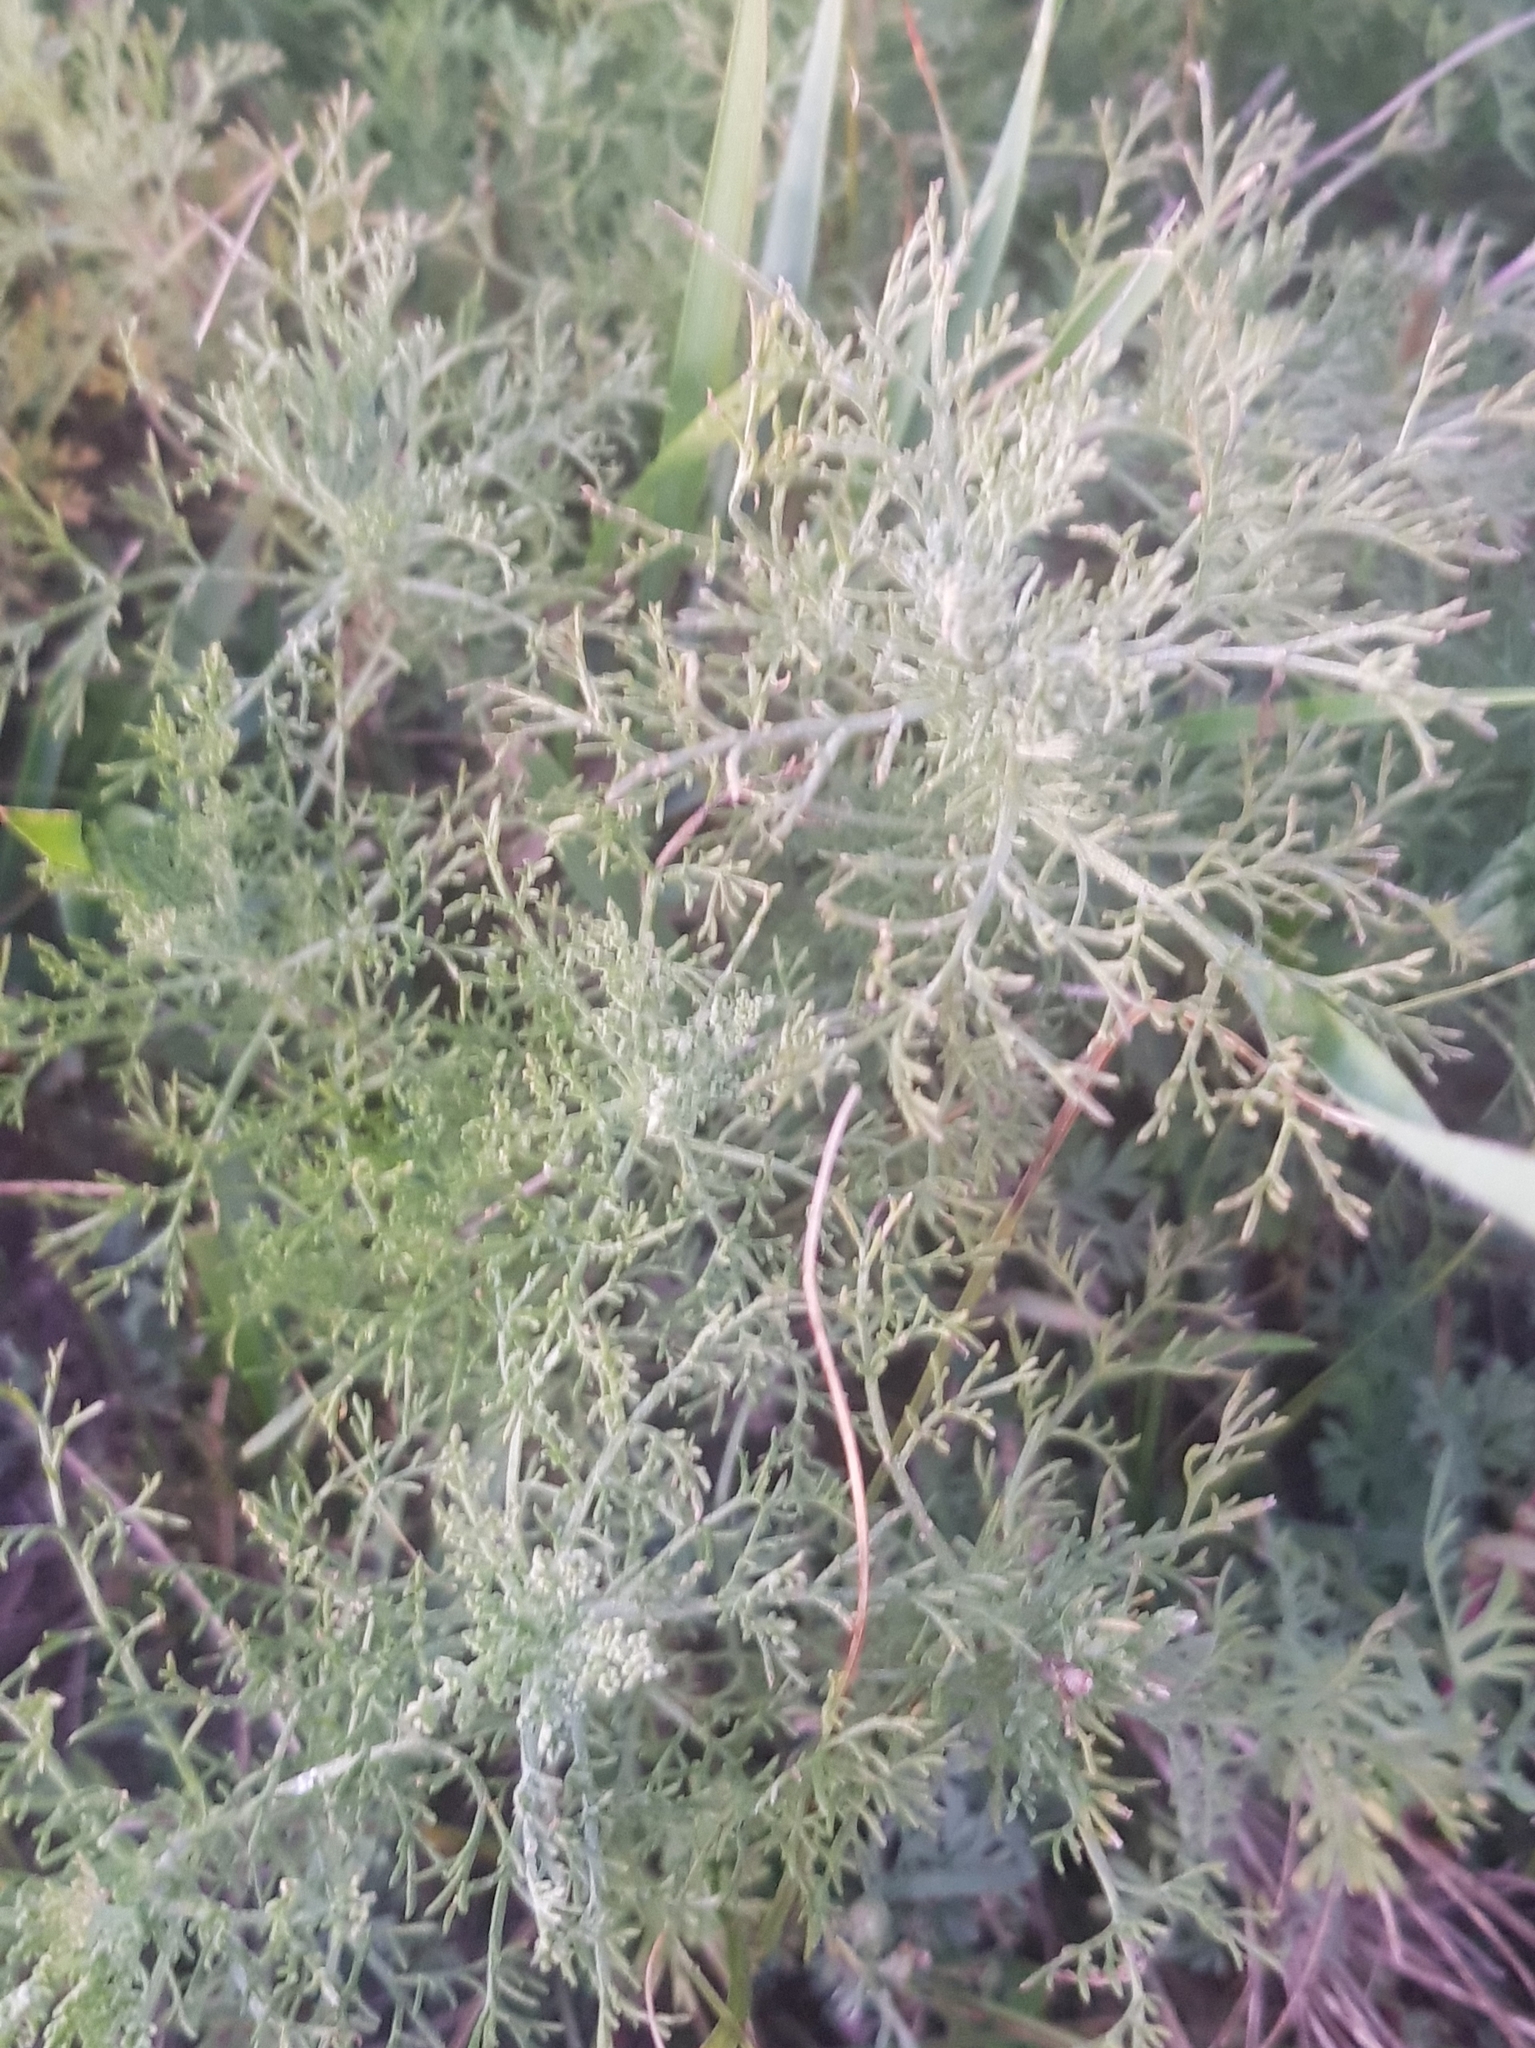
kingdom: Plantae
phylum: Tracheophyta
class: Magnoliopsida
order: Asterales
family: Asteraceae
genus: Artemisia
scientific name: Artemisia adamsii
